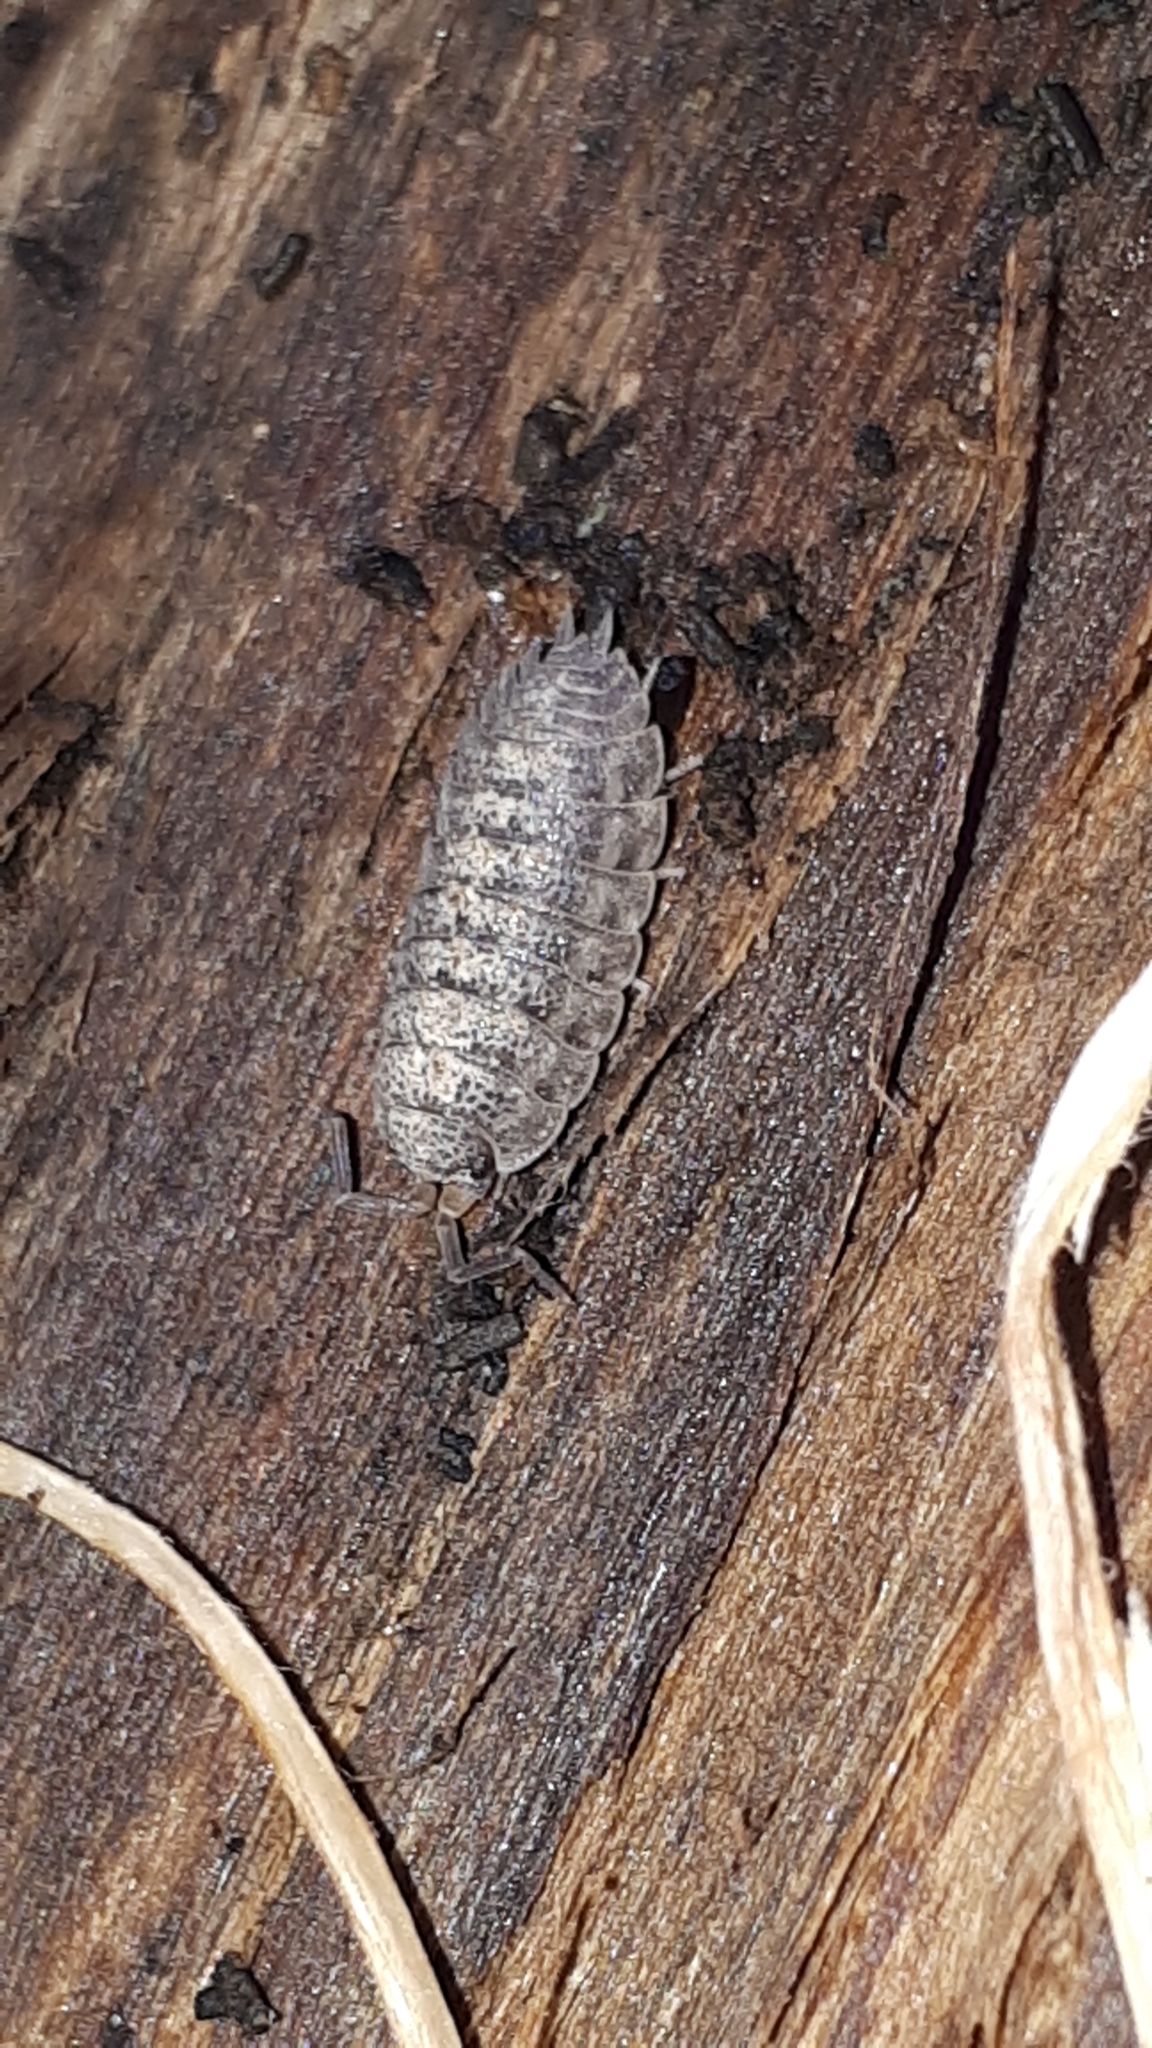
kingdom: Animalia
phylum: Arthropoda
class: Malacostraca
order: Isopoda
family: Trachelipodidae
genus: Trachelipus
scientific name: Trachelipus rathkii
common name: Isopod
